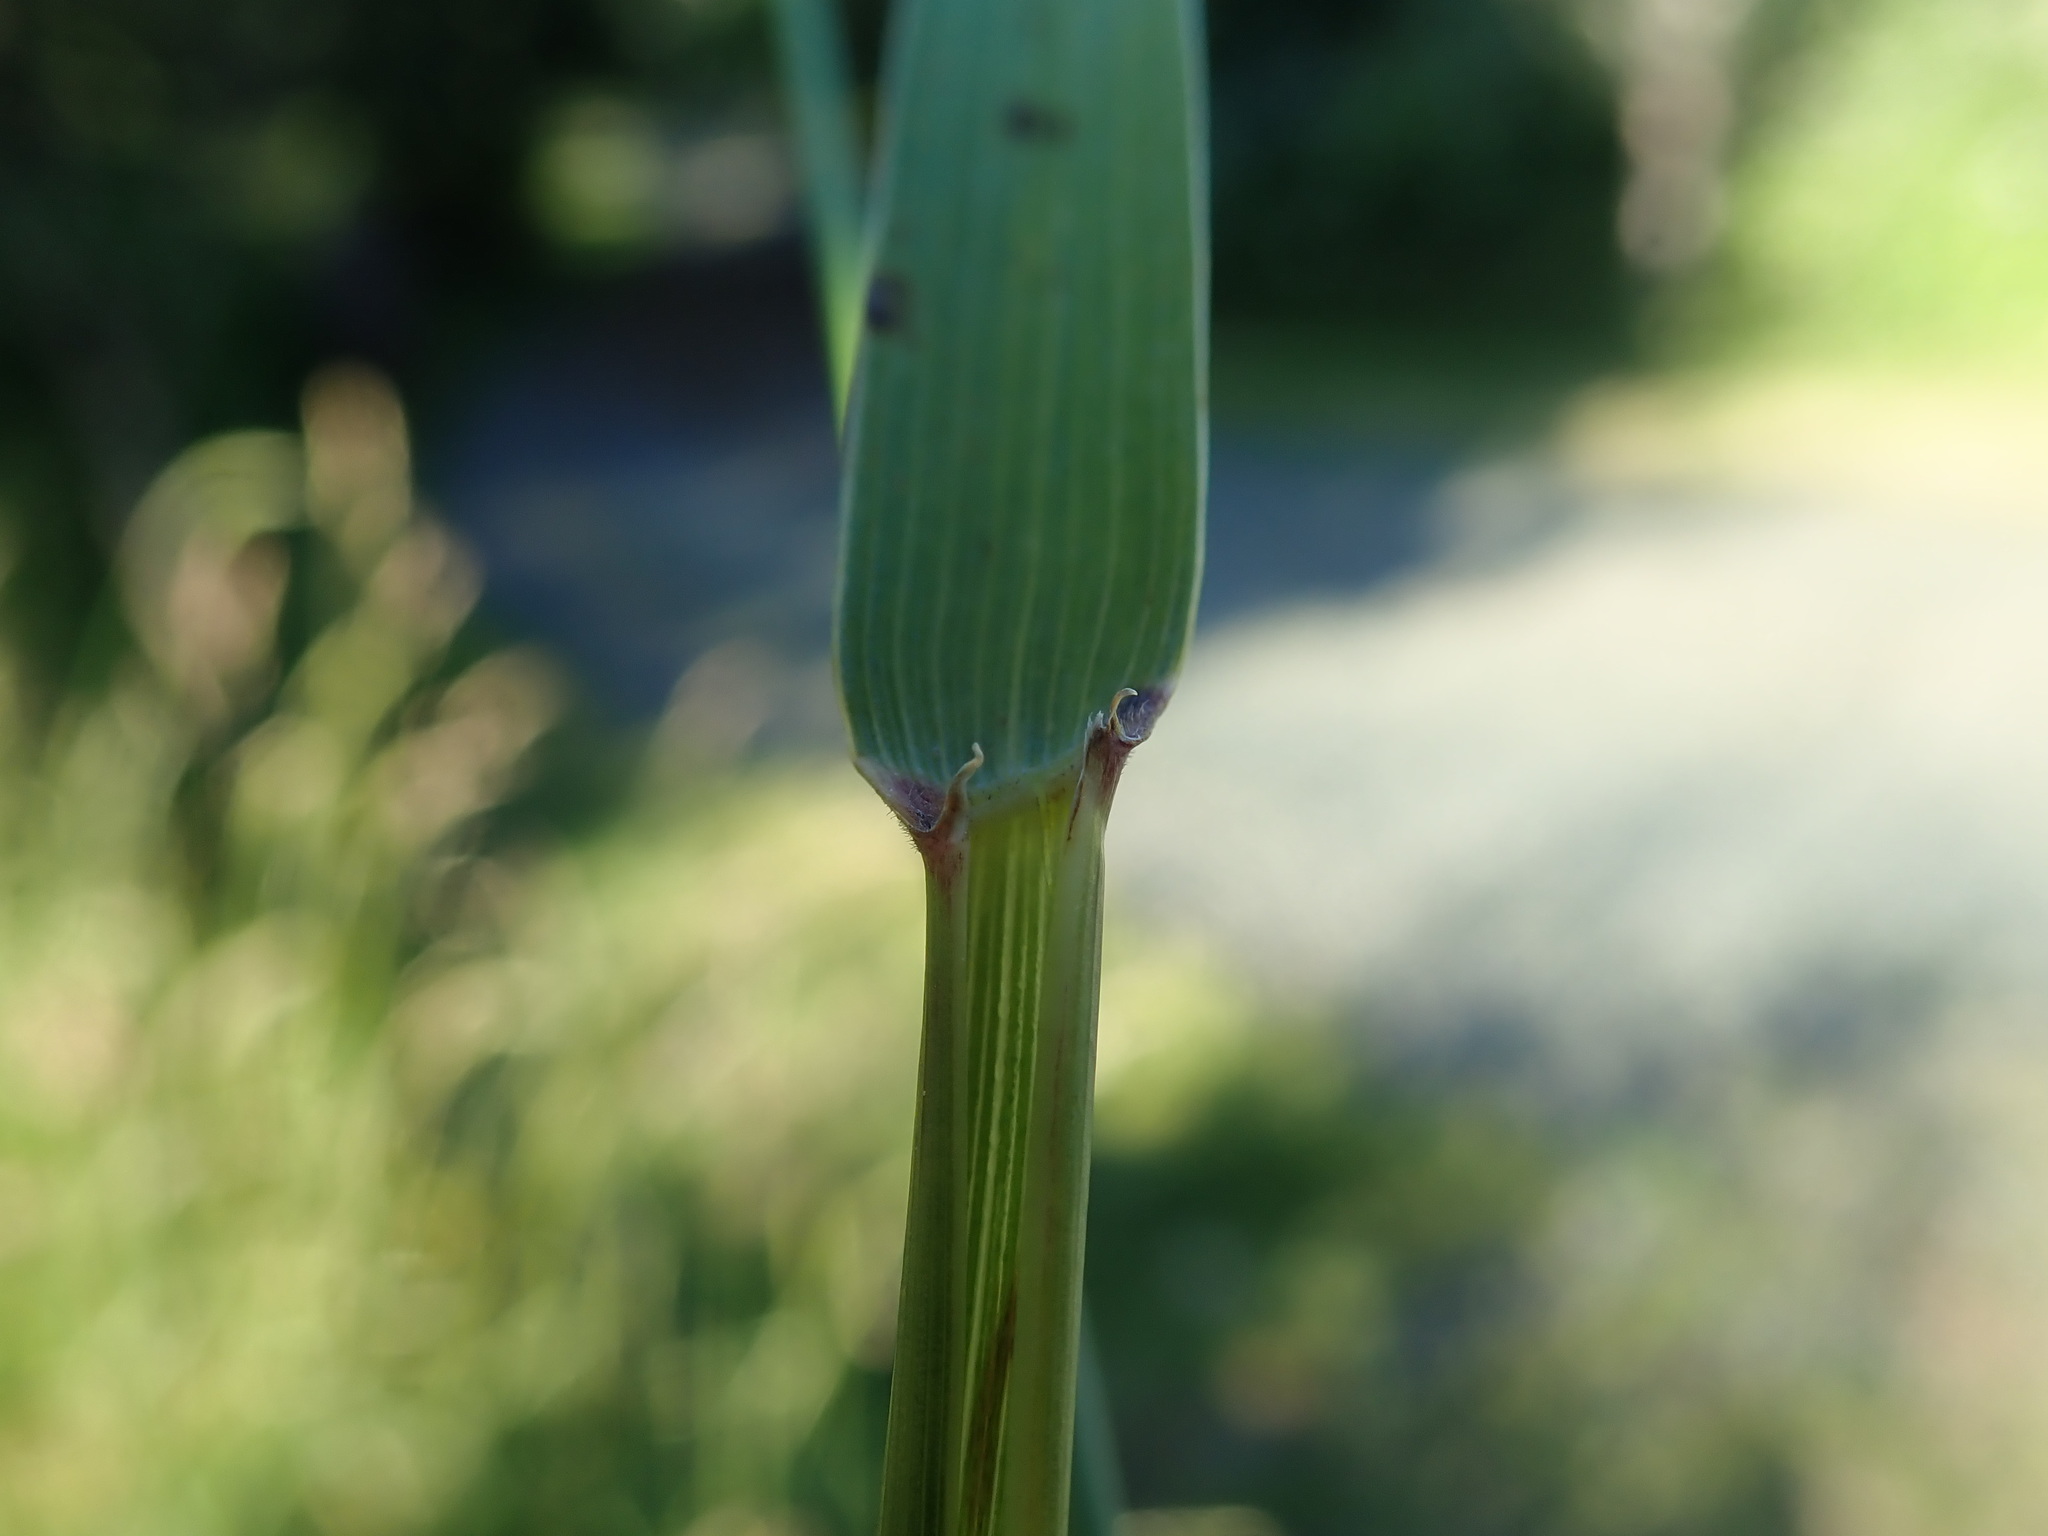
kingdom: Plantae
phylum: Tracheophyta
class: Liliopsida
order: Poales
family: Poaceae
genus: Elymus
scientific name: Elymus repens
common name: Quackgrass
